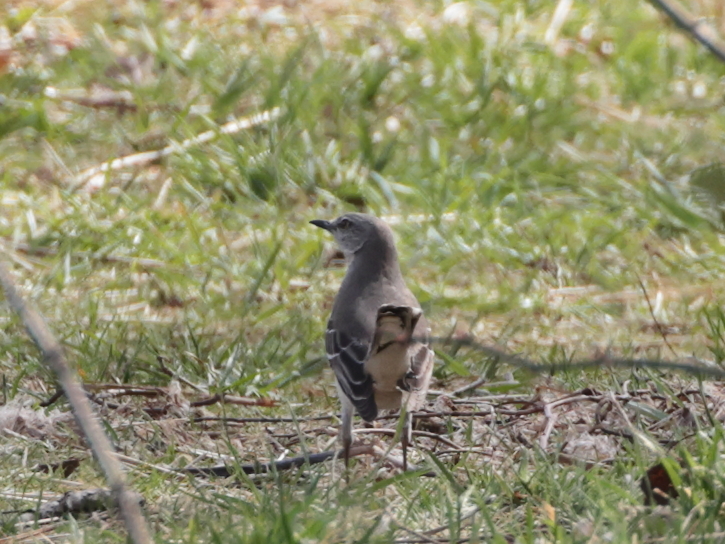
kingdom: Animalia
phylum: Chordata
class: Aves
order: Passeriformes
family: Mimidae
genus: Mimus
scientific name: Mimus polyglottos
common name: Northern mockingbird
